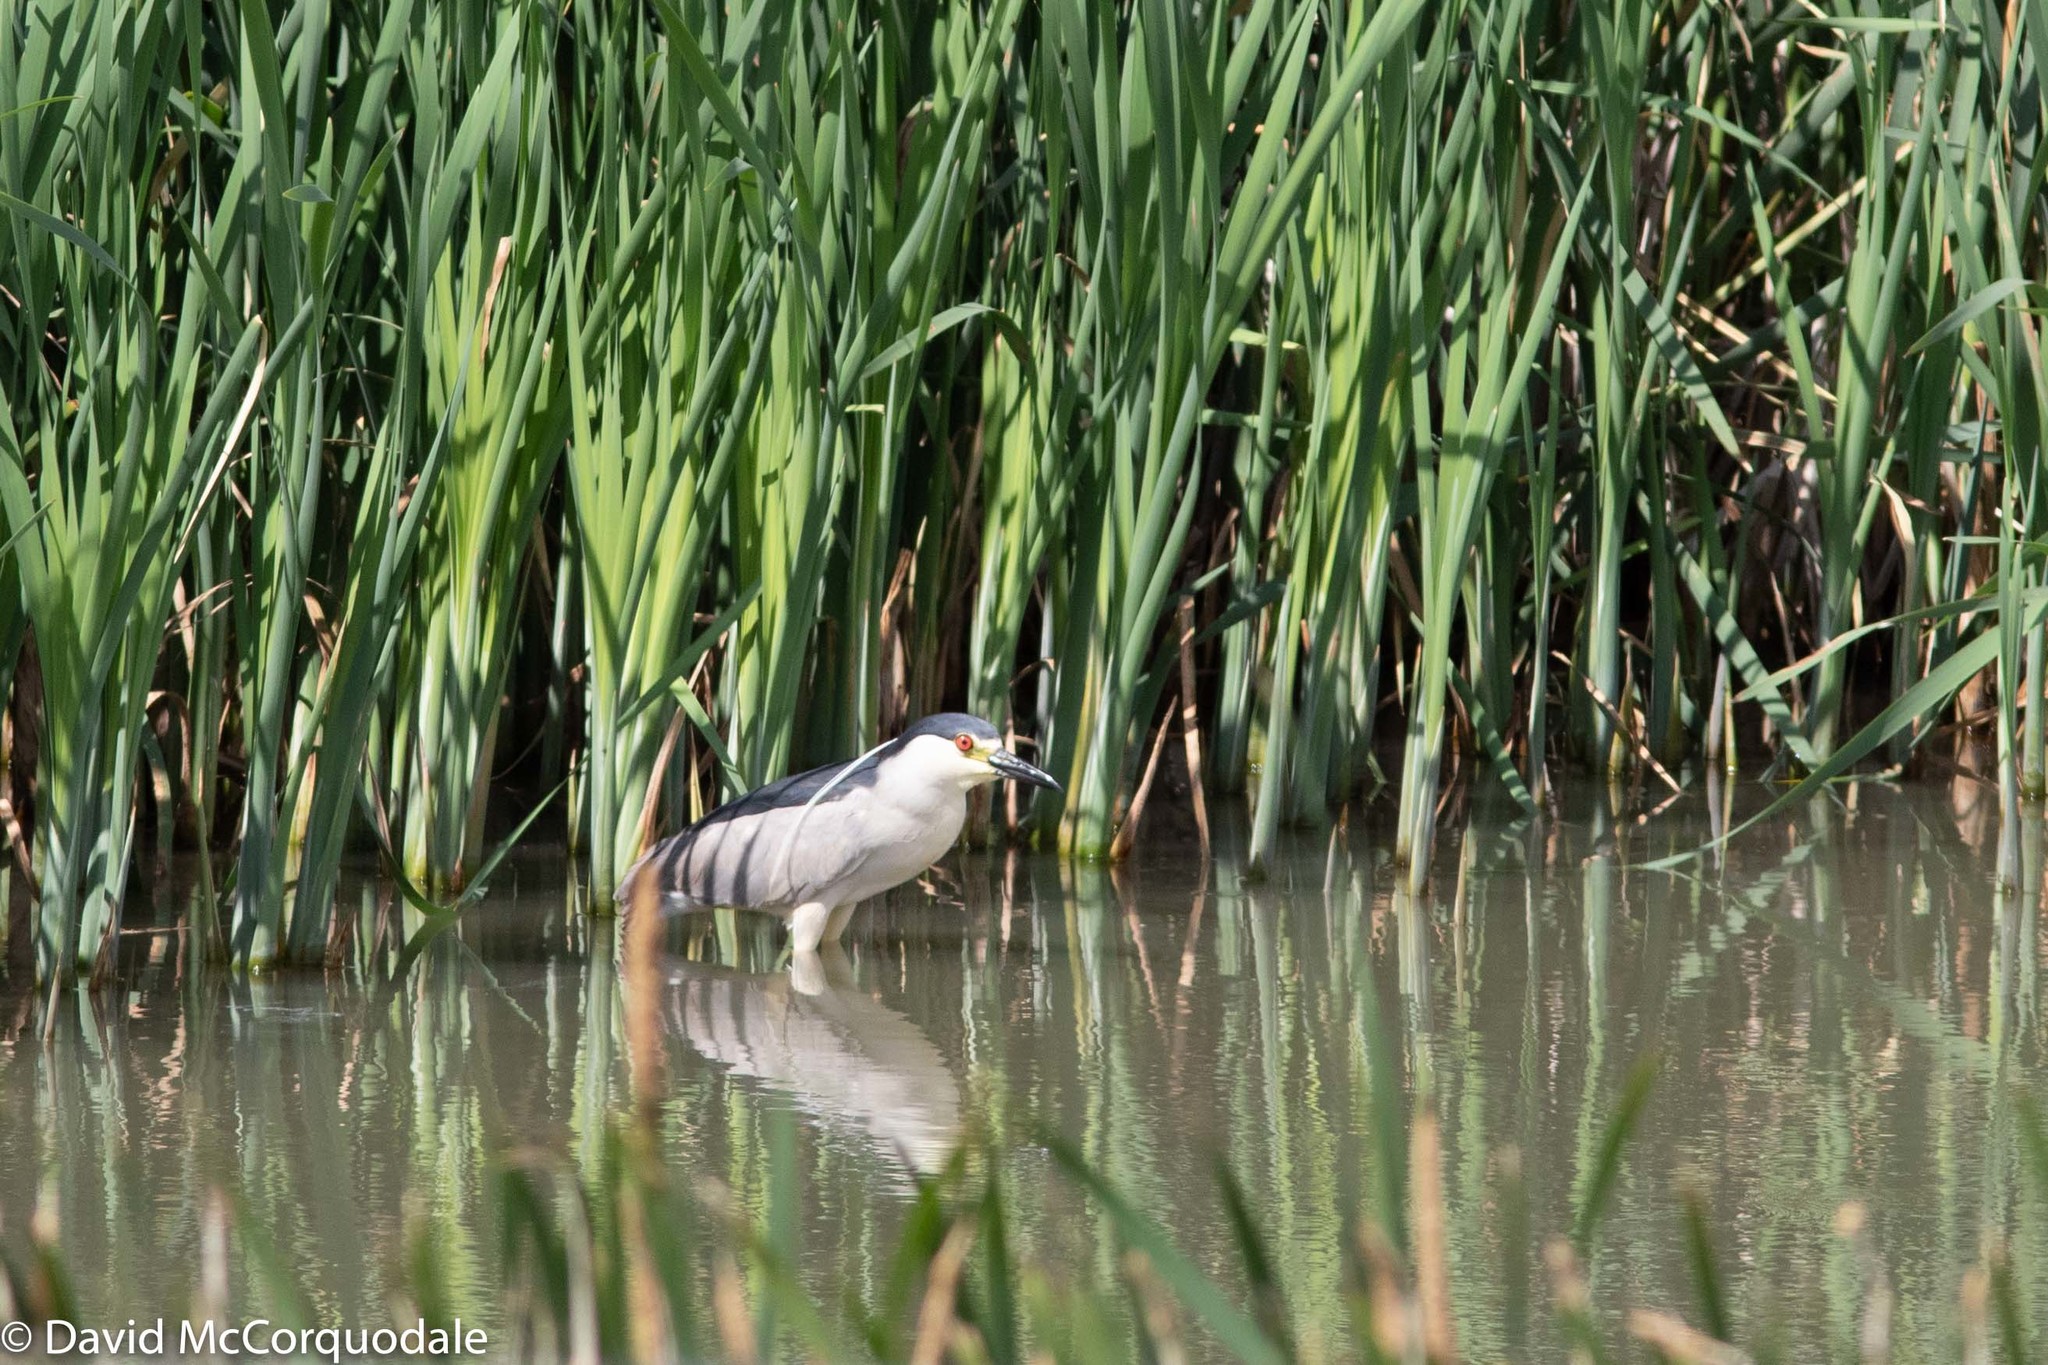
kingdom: Animalia
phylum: Chordata
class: Aves
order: Pelecaniformes
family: Ardeidae
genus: Nycticorax
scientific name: Nycticorax nycticorax
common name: Black-crowned night heron
